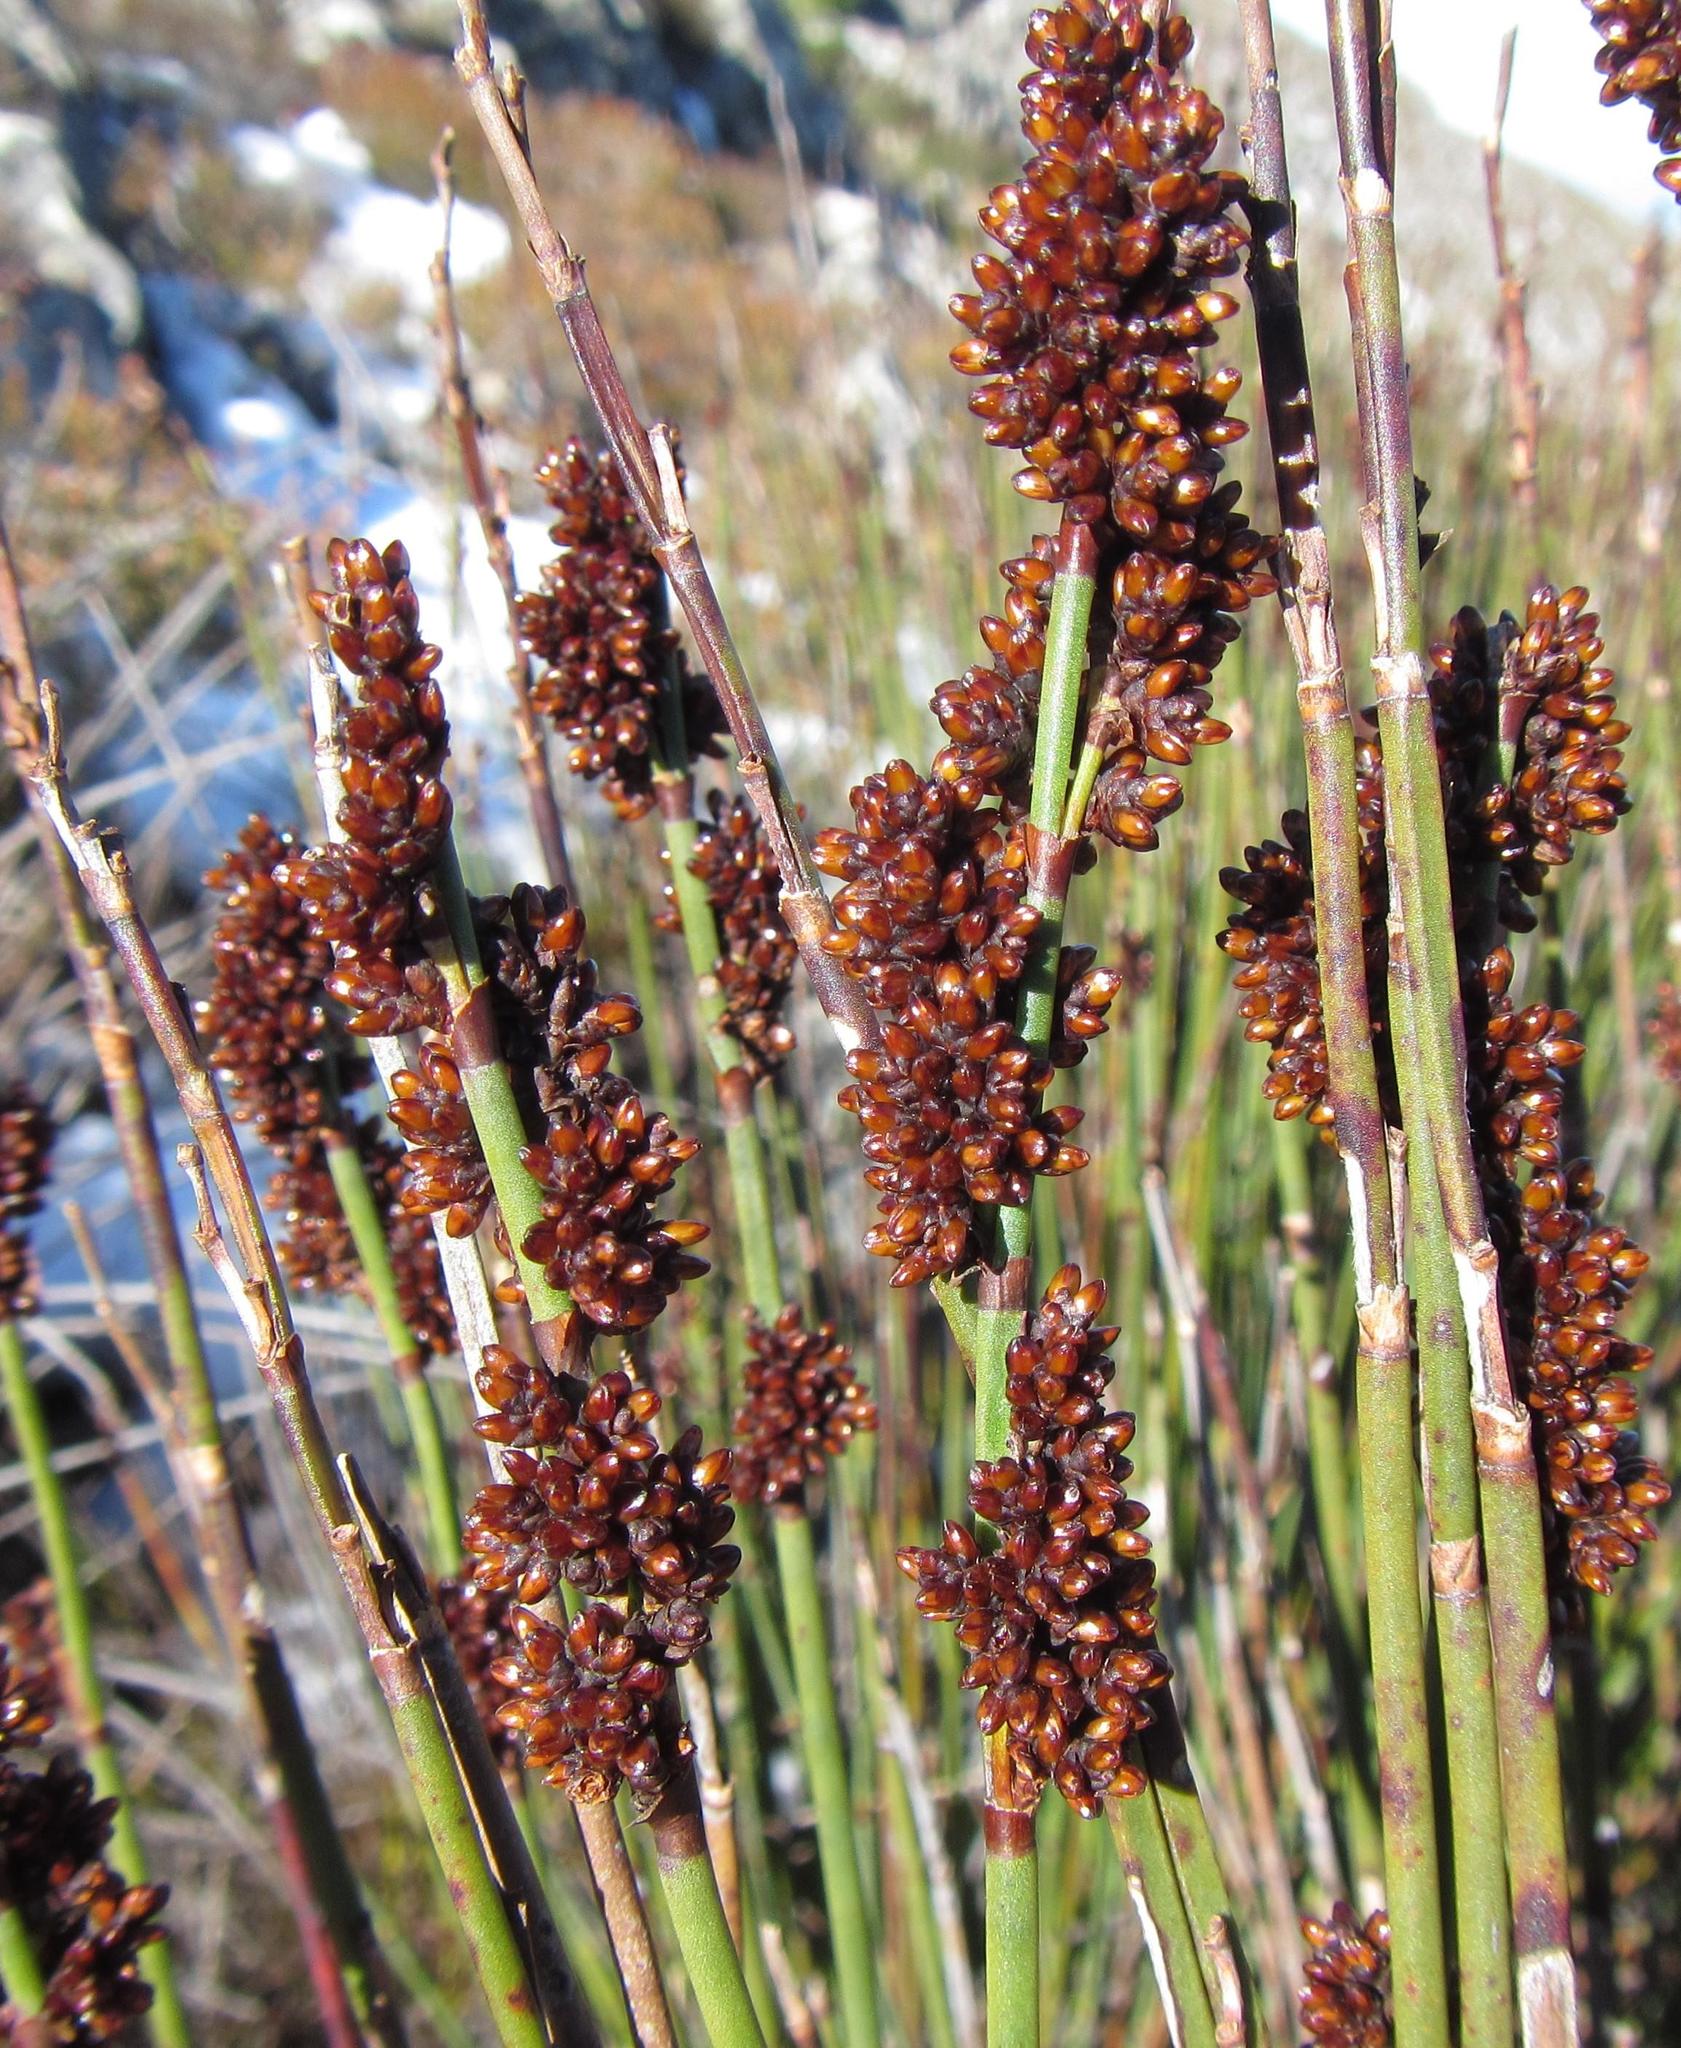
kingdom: Plantae
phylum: Tracheophyta
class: Liliopsida
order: Poales
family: Restionaceae
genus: Elegia
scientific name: Elegia aggregata
